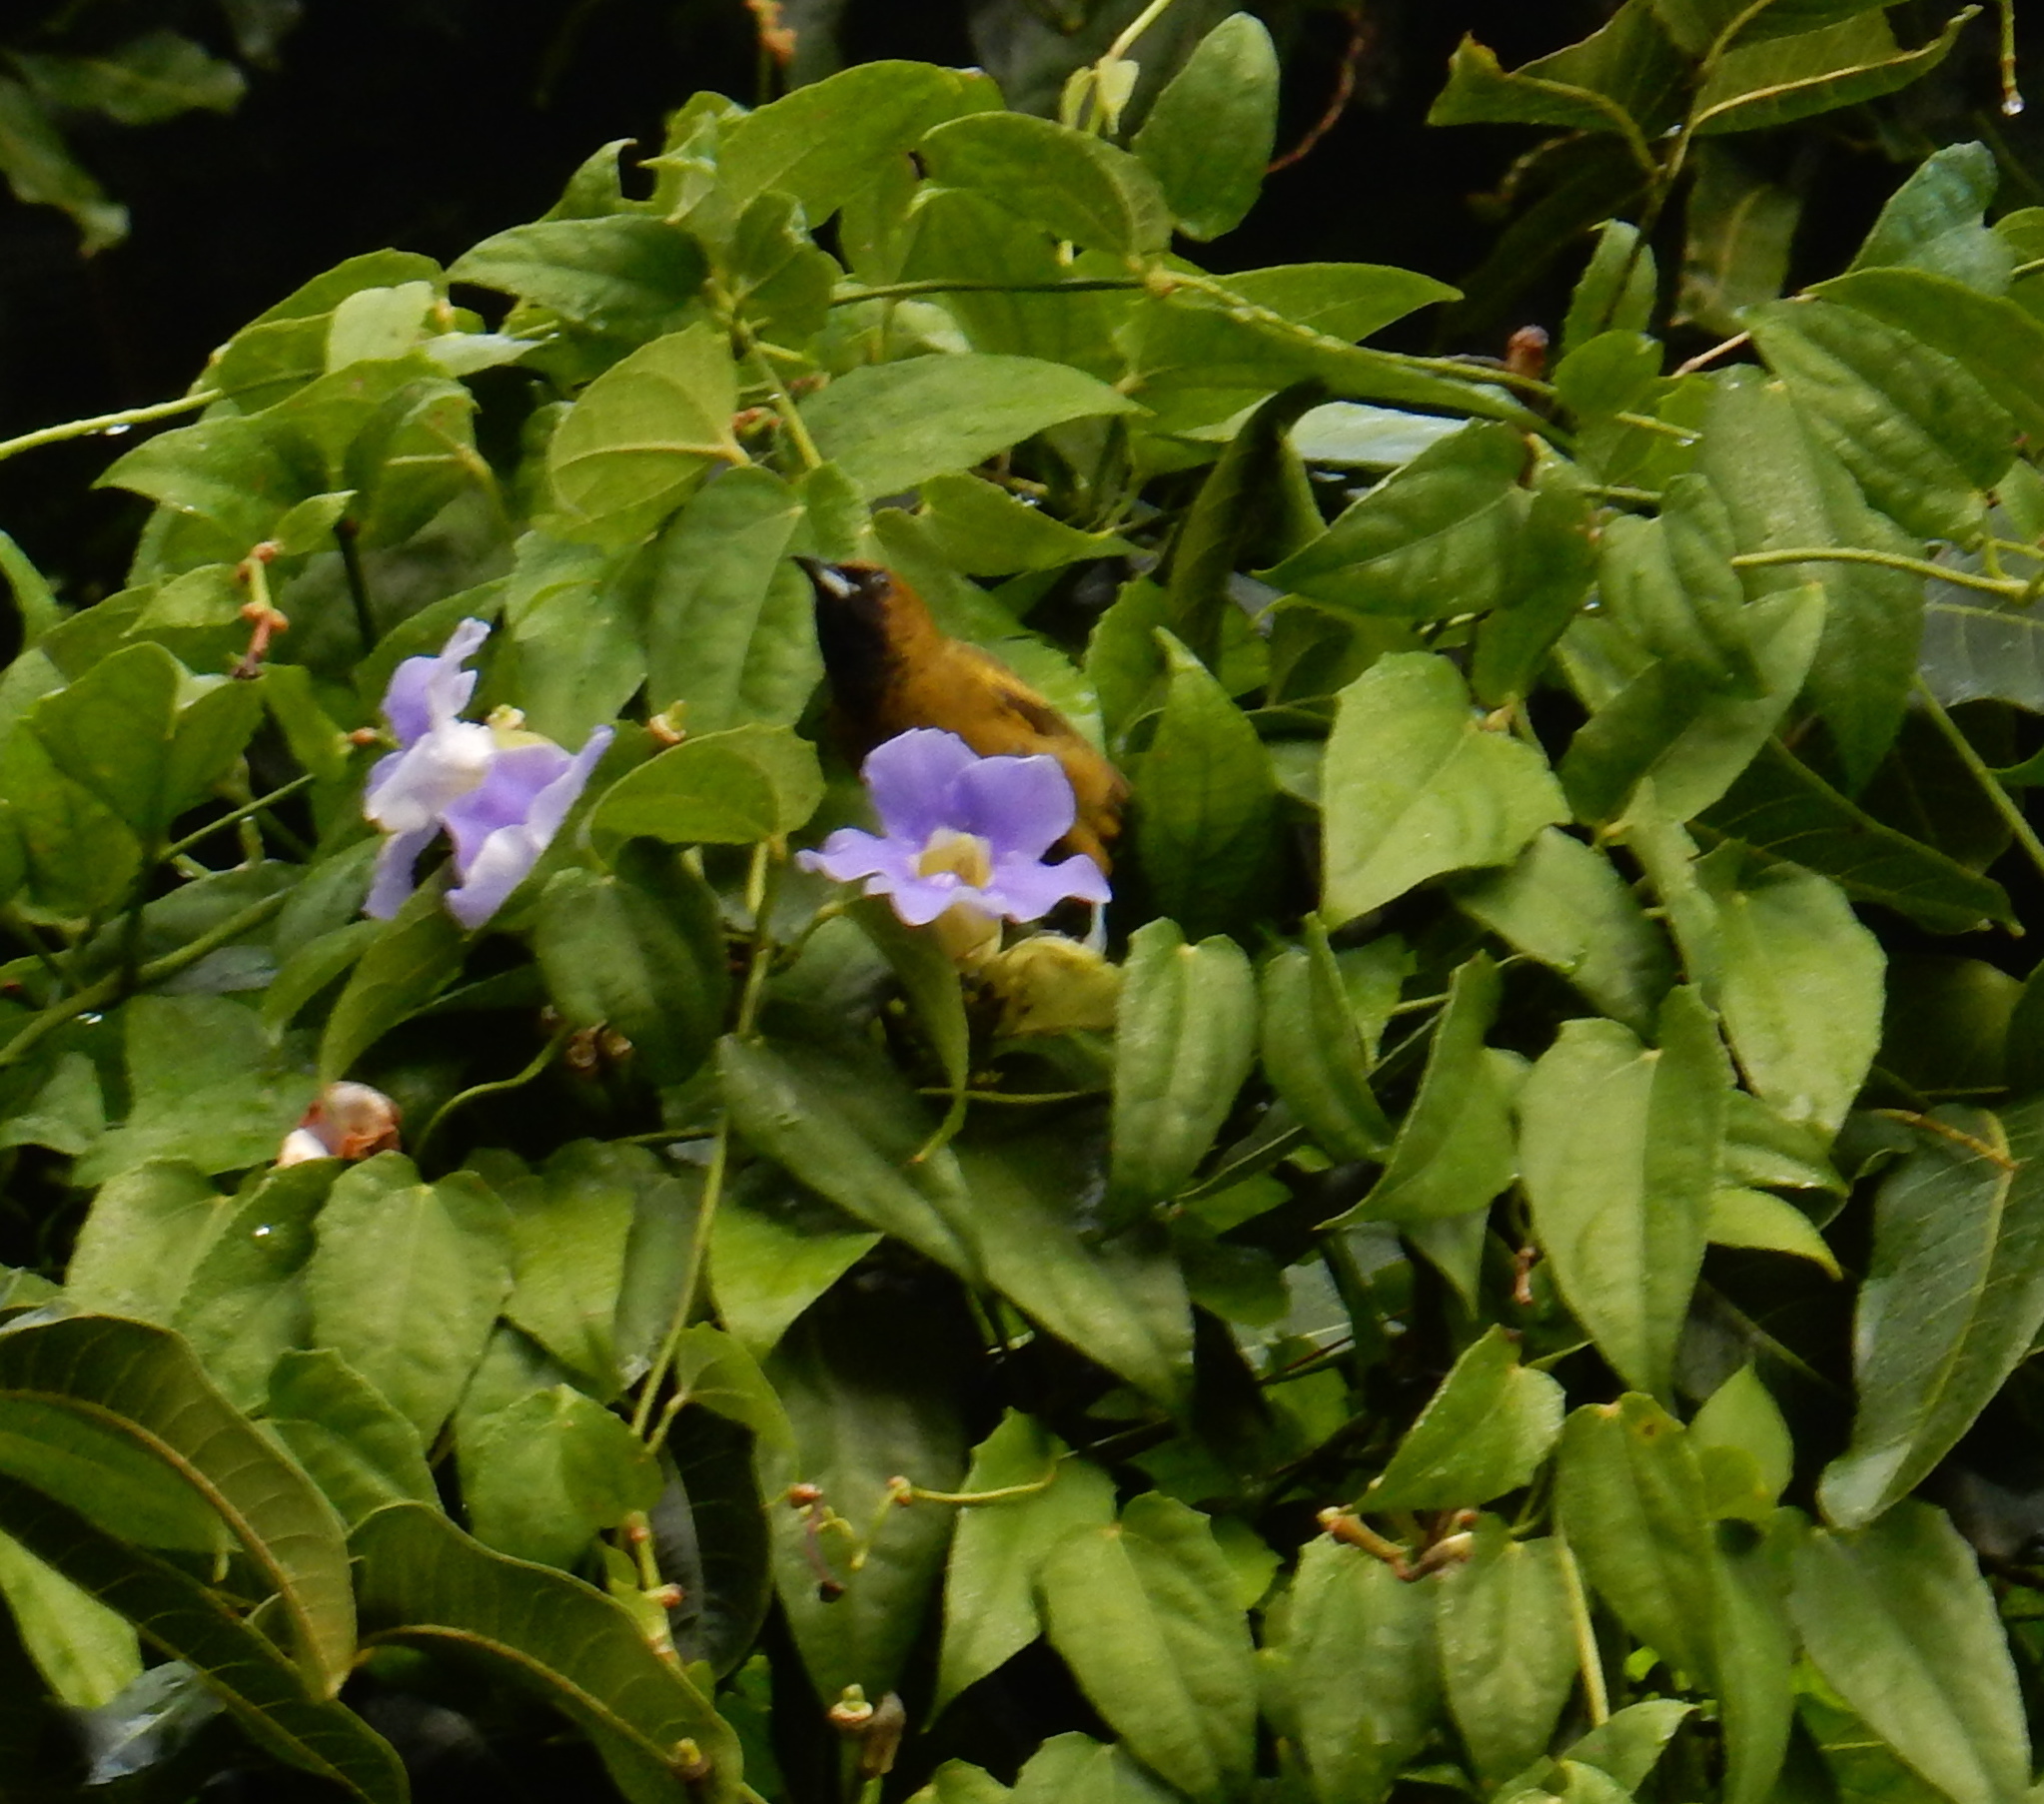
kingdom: Animalia
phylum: Chordata
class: Aves
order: Passeriformes
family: Icteridae
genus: Icterus
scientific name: Icterus dominicensis
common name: Hispaniolan oriole
